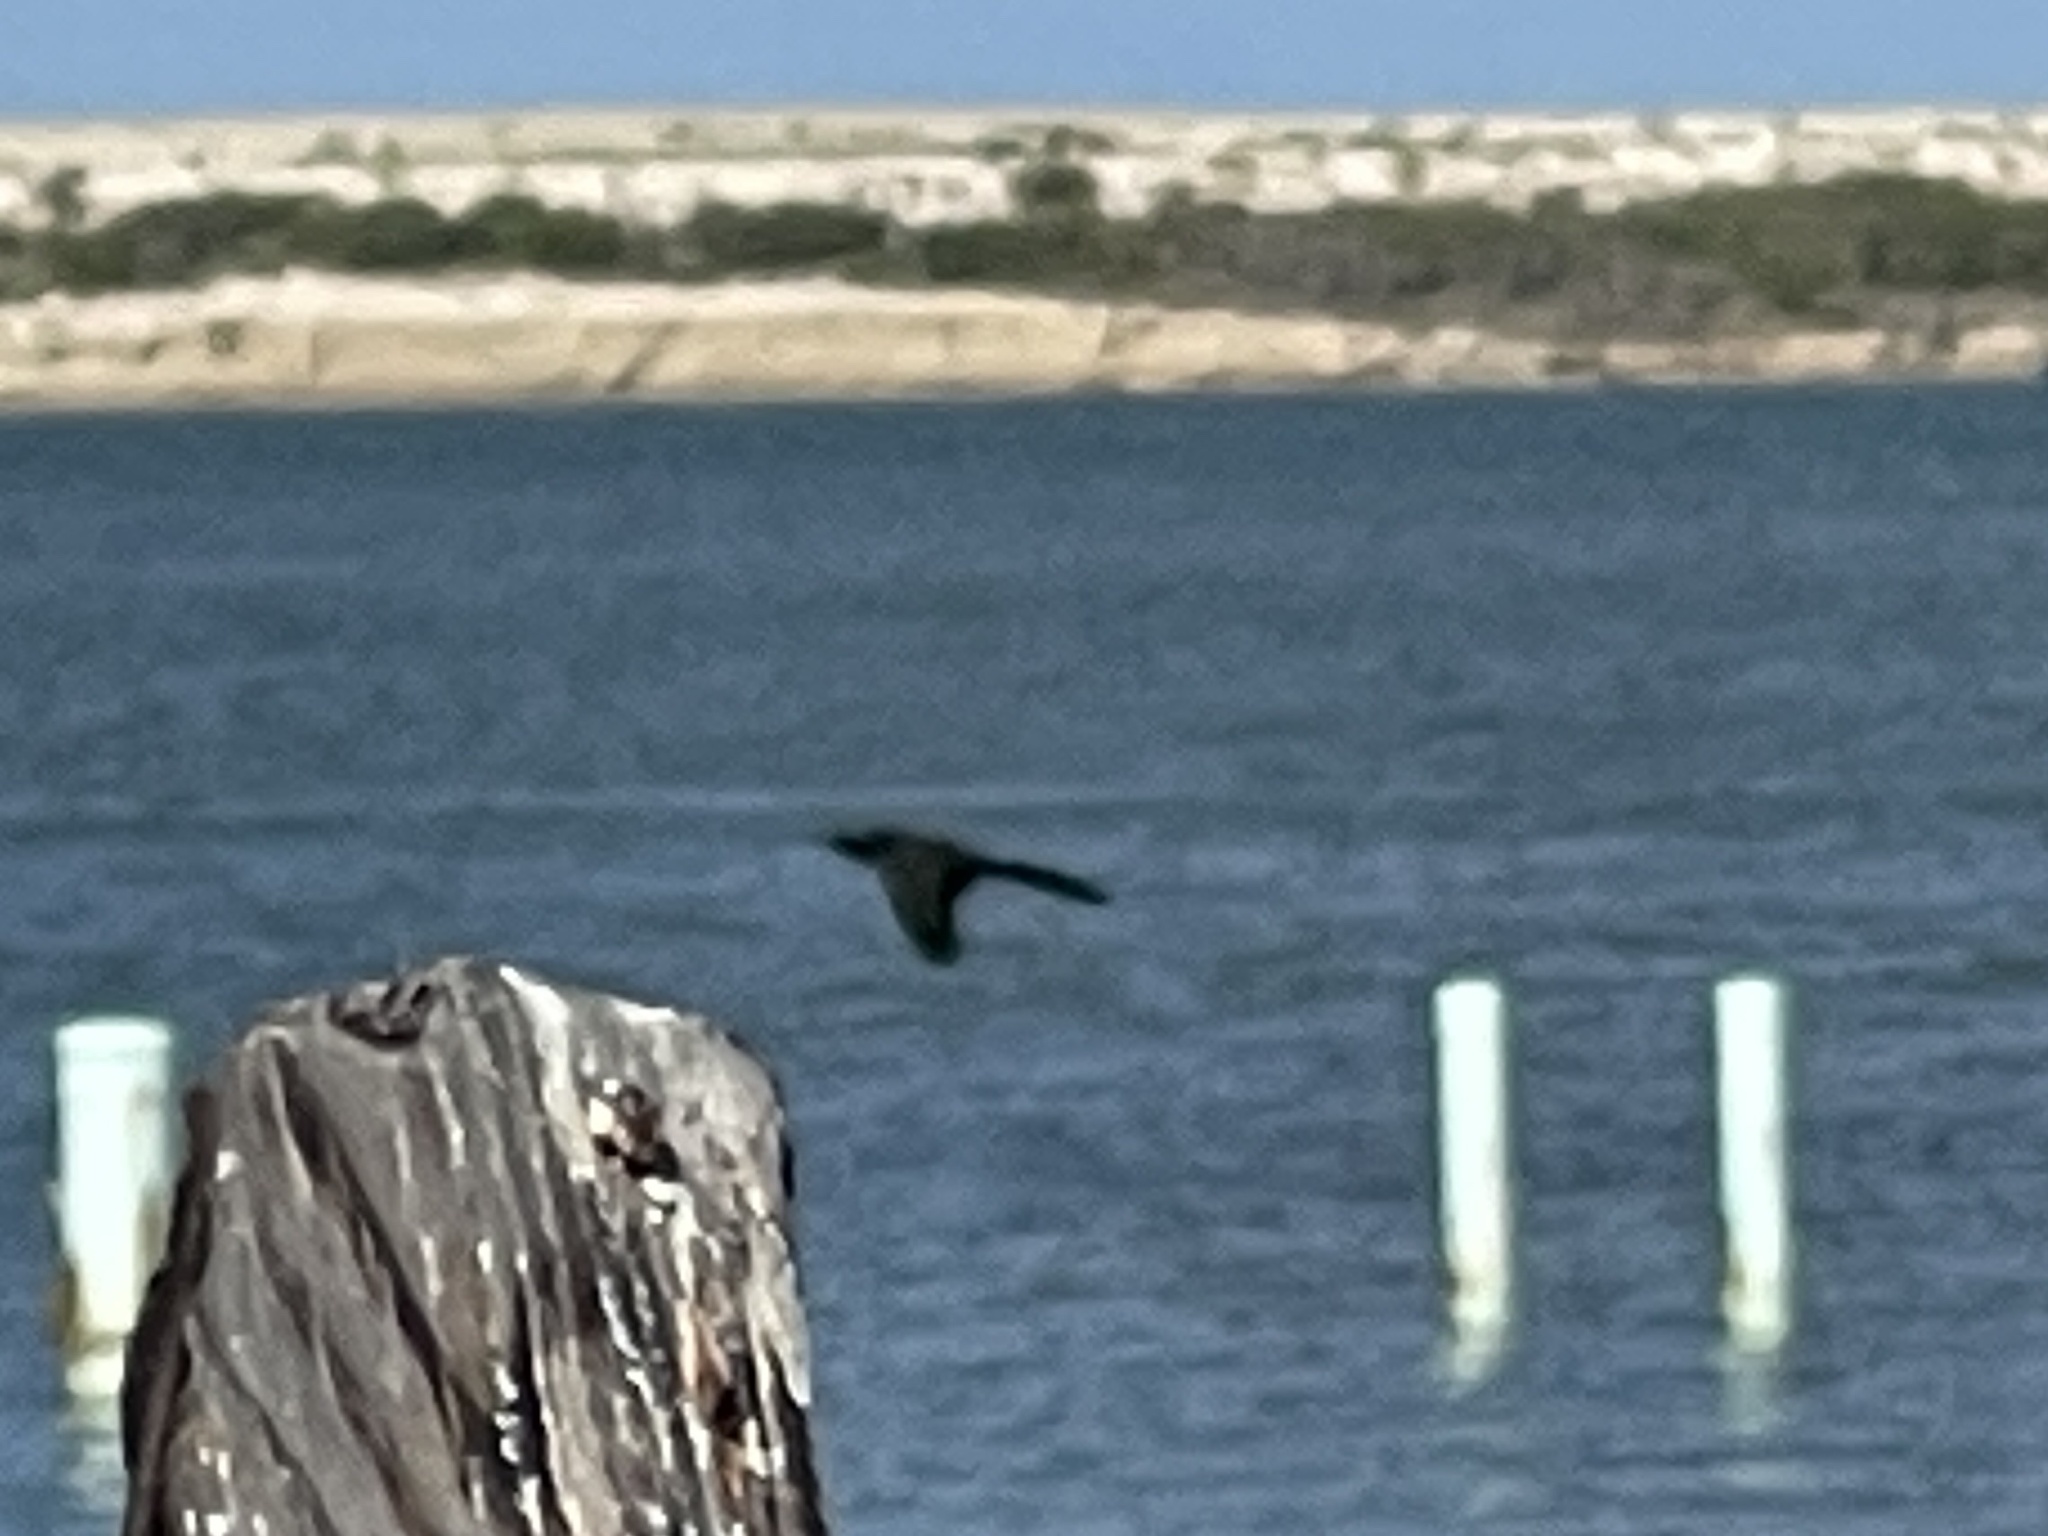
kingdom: Animalia
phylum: Chordata
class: Aves
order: Passeriformes
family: Icteridae
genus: Quiscalus
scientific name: Quiscalus mexicanus
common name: Great-tailed grackle
